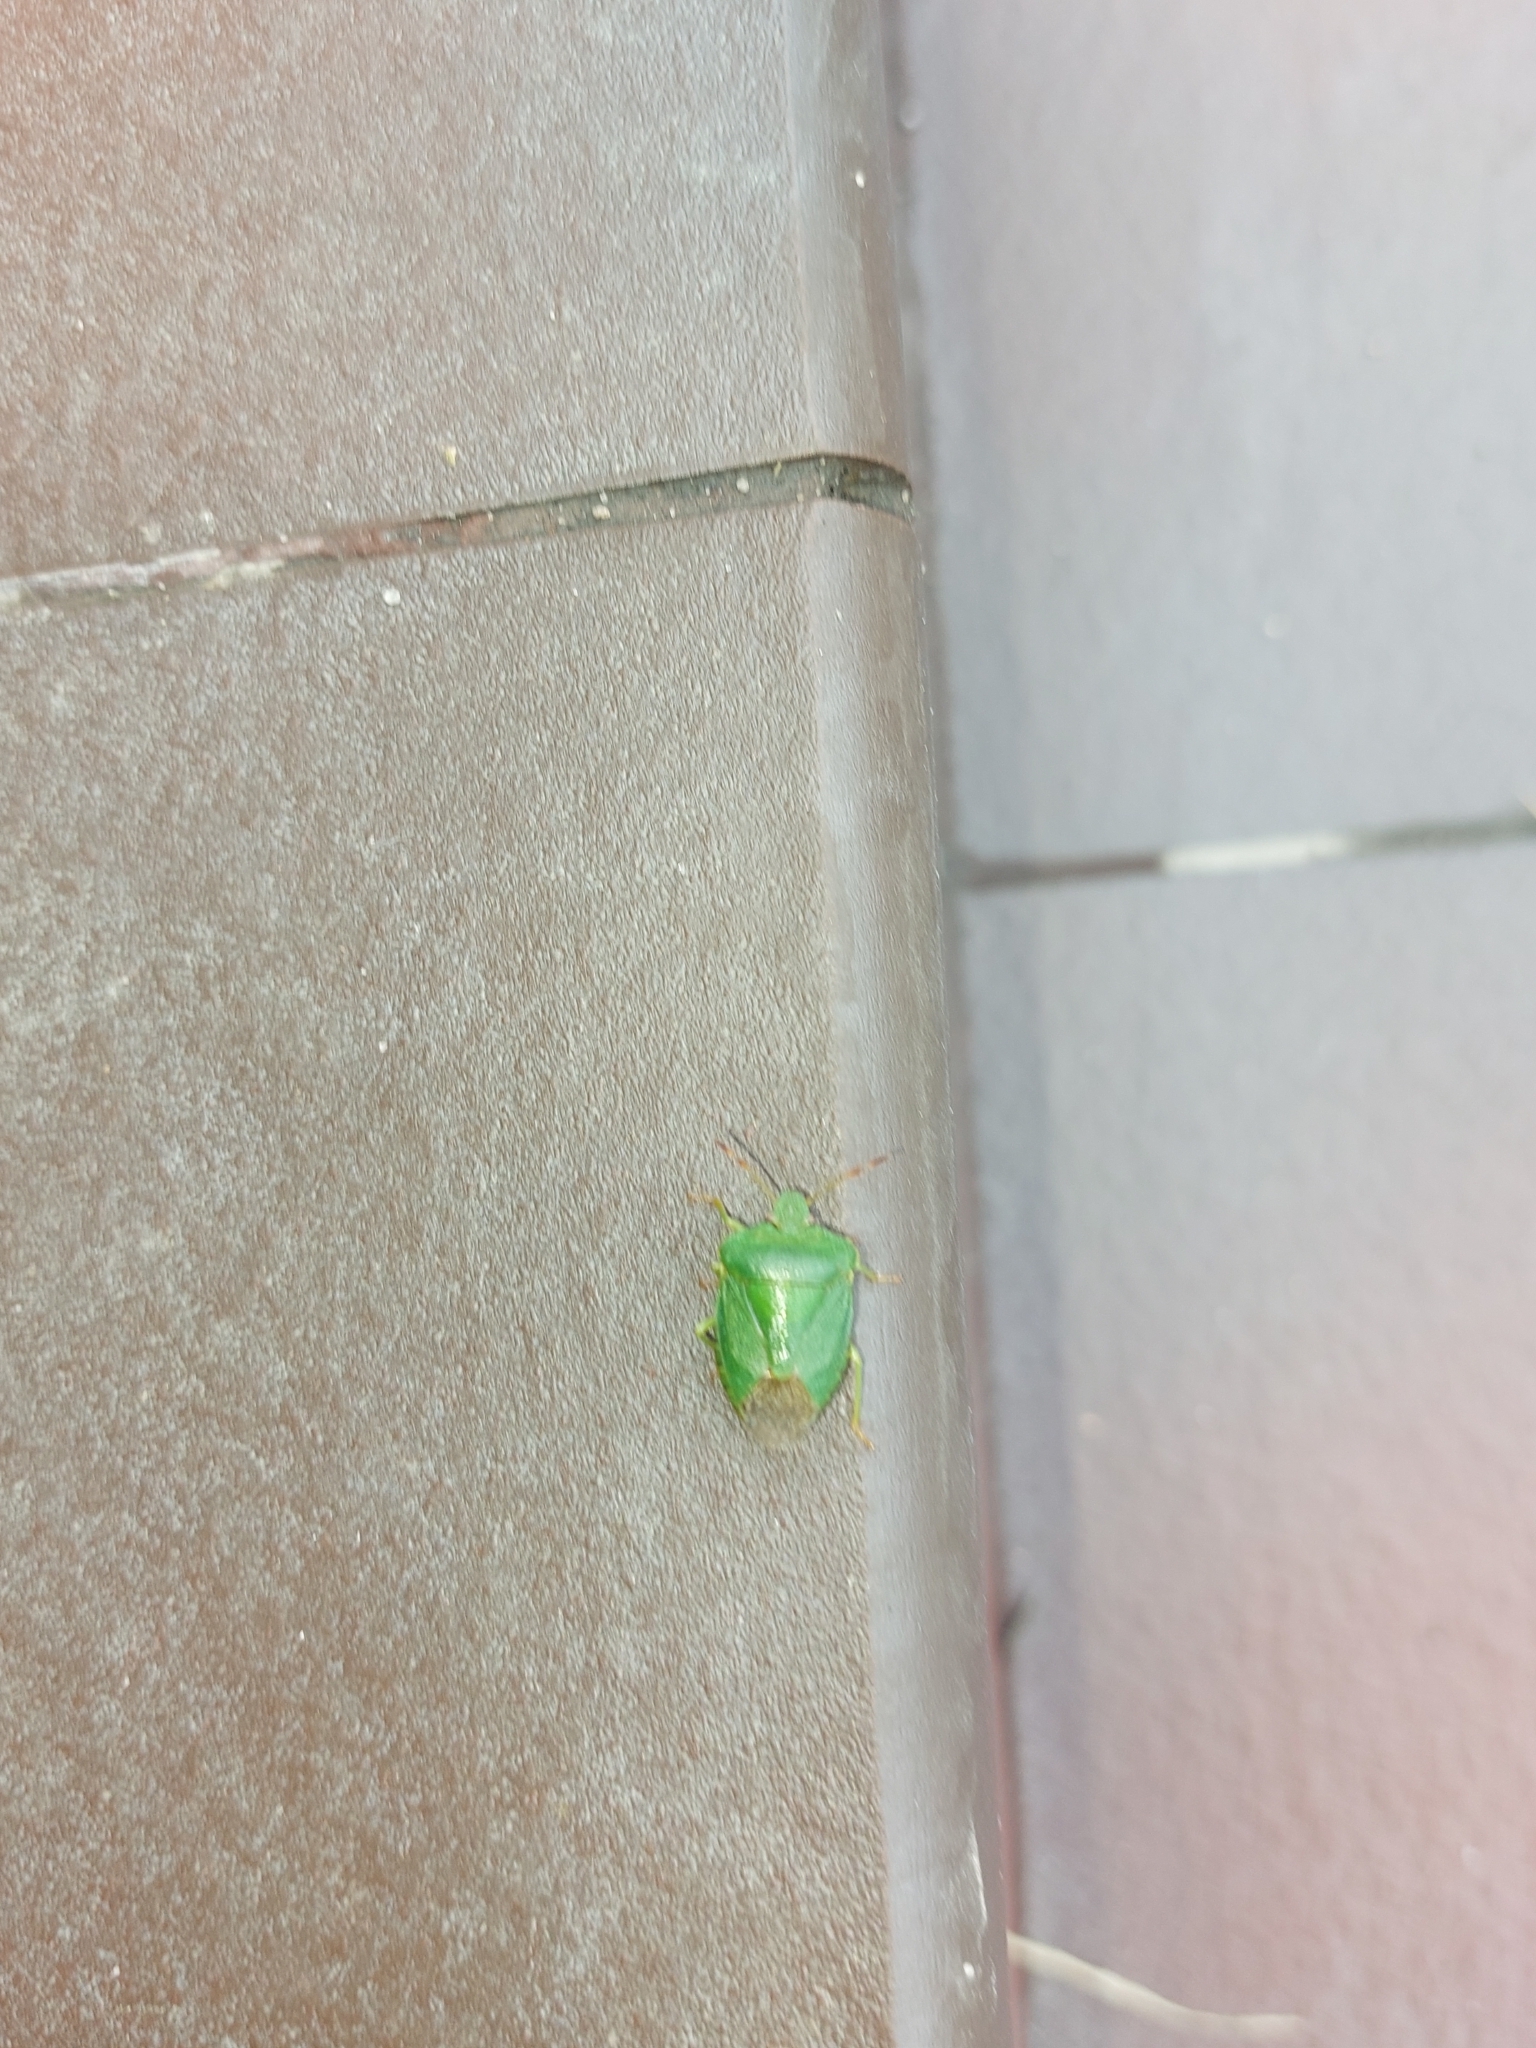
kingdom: Animalia
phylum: Arthropoda
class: Insecta
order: Hemiptera
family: Pentatomidae
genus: Palomena
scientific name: Palomena prasina
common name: Green shieldbug
